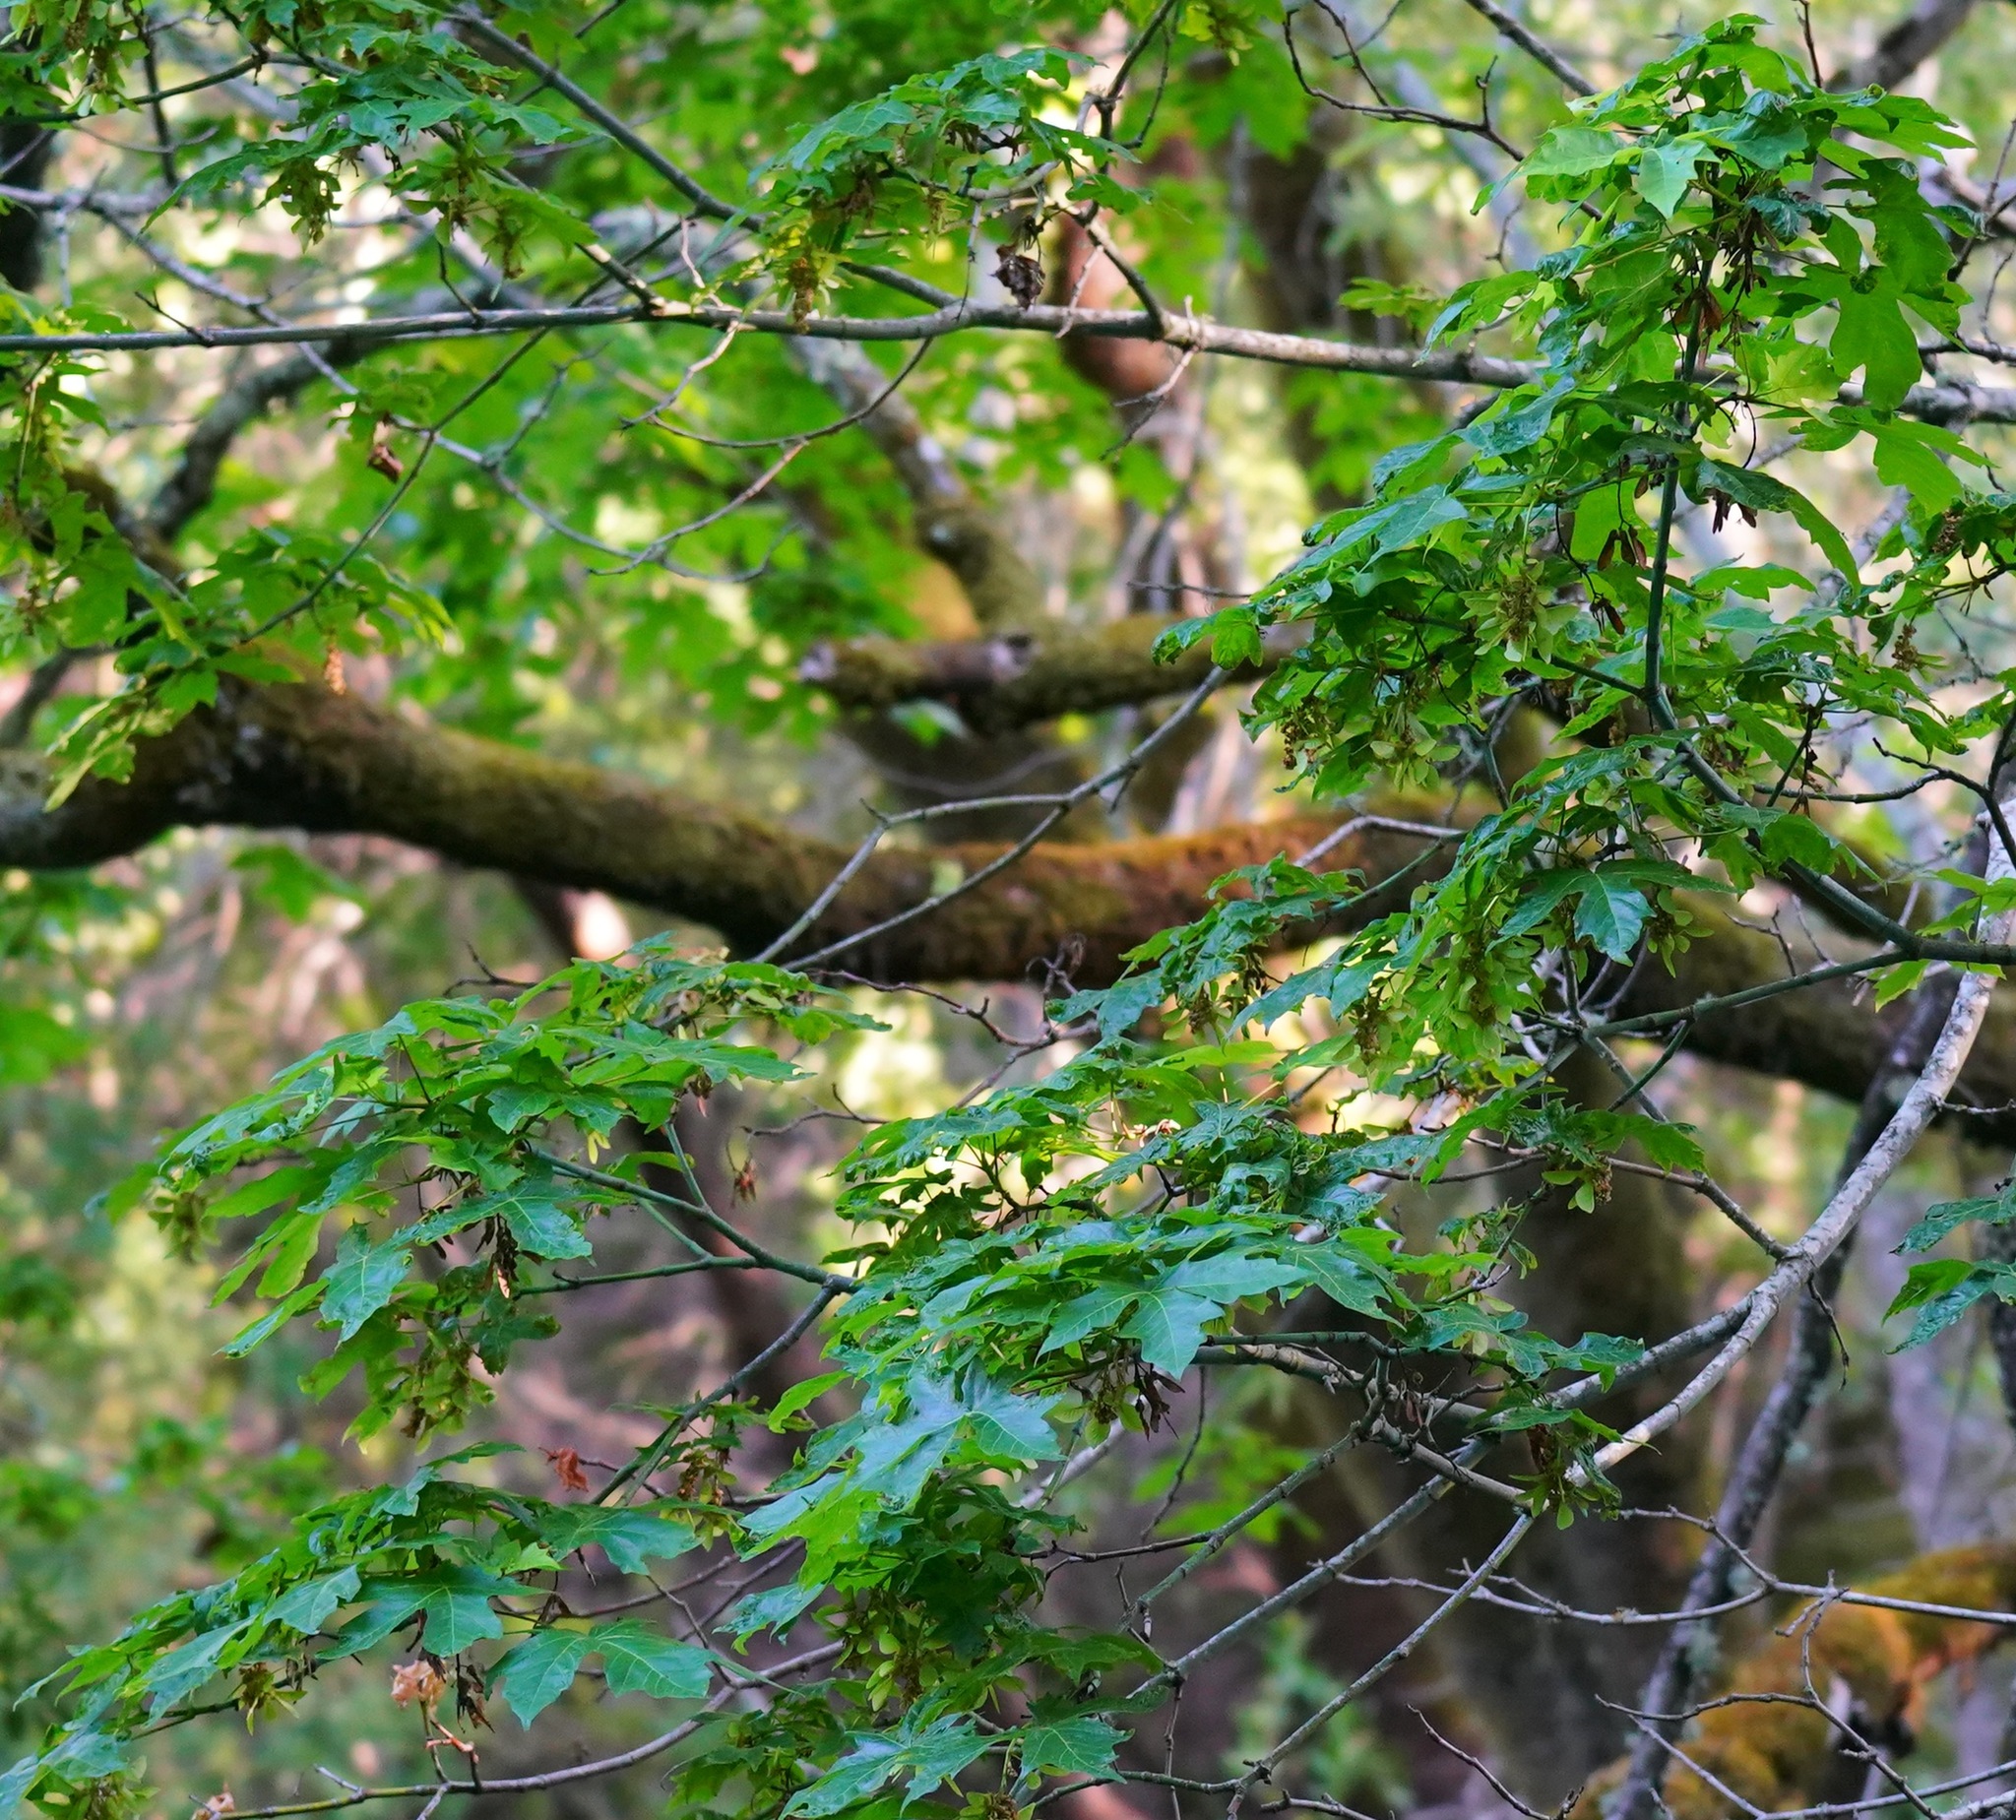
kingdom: Plantae
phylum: Tracheophyta
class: Magnoliopsida
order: Sapindales
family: Sapindaceae
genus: Acer
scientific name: Acer macrophyllum
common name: Oregon maple
